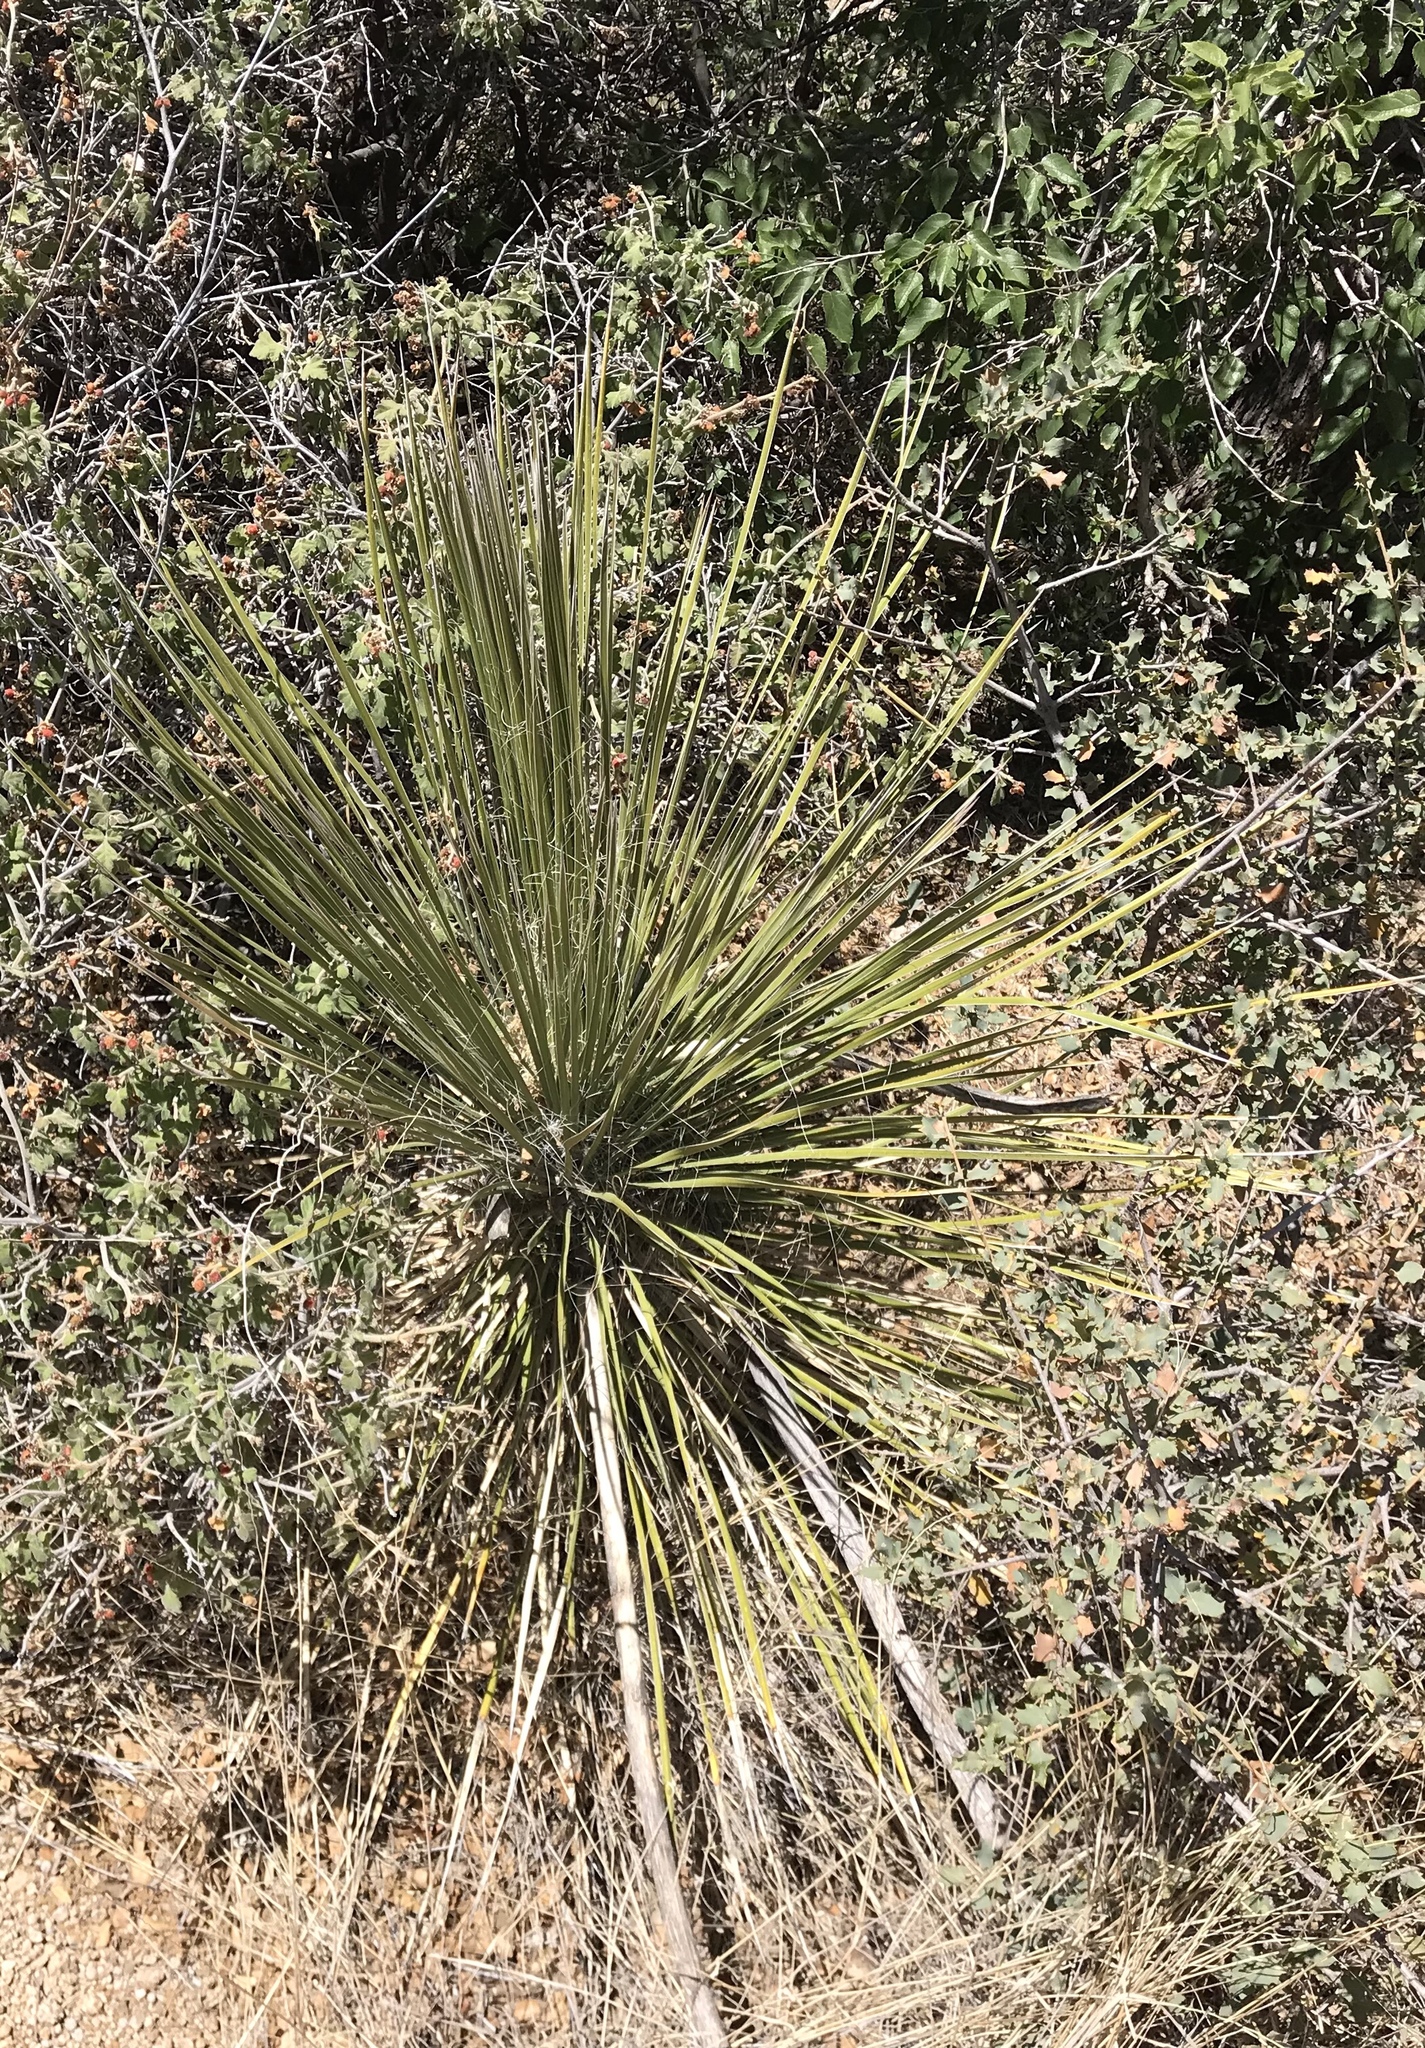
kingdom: Plantae
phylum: Tracheophyta
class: Liliopsida
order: Asparagales
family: Asparagaceae
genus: Yucca
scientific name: Yucca elata
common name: Palmella
